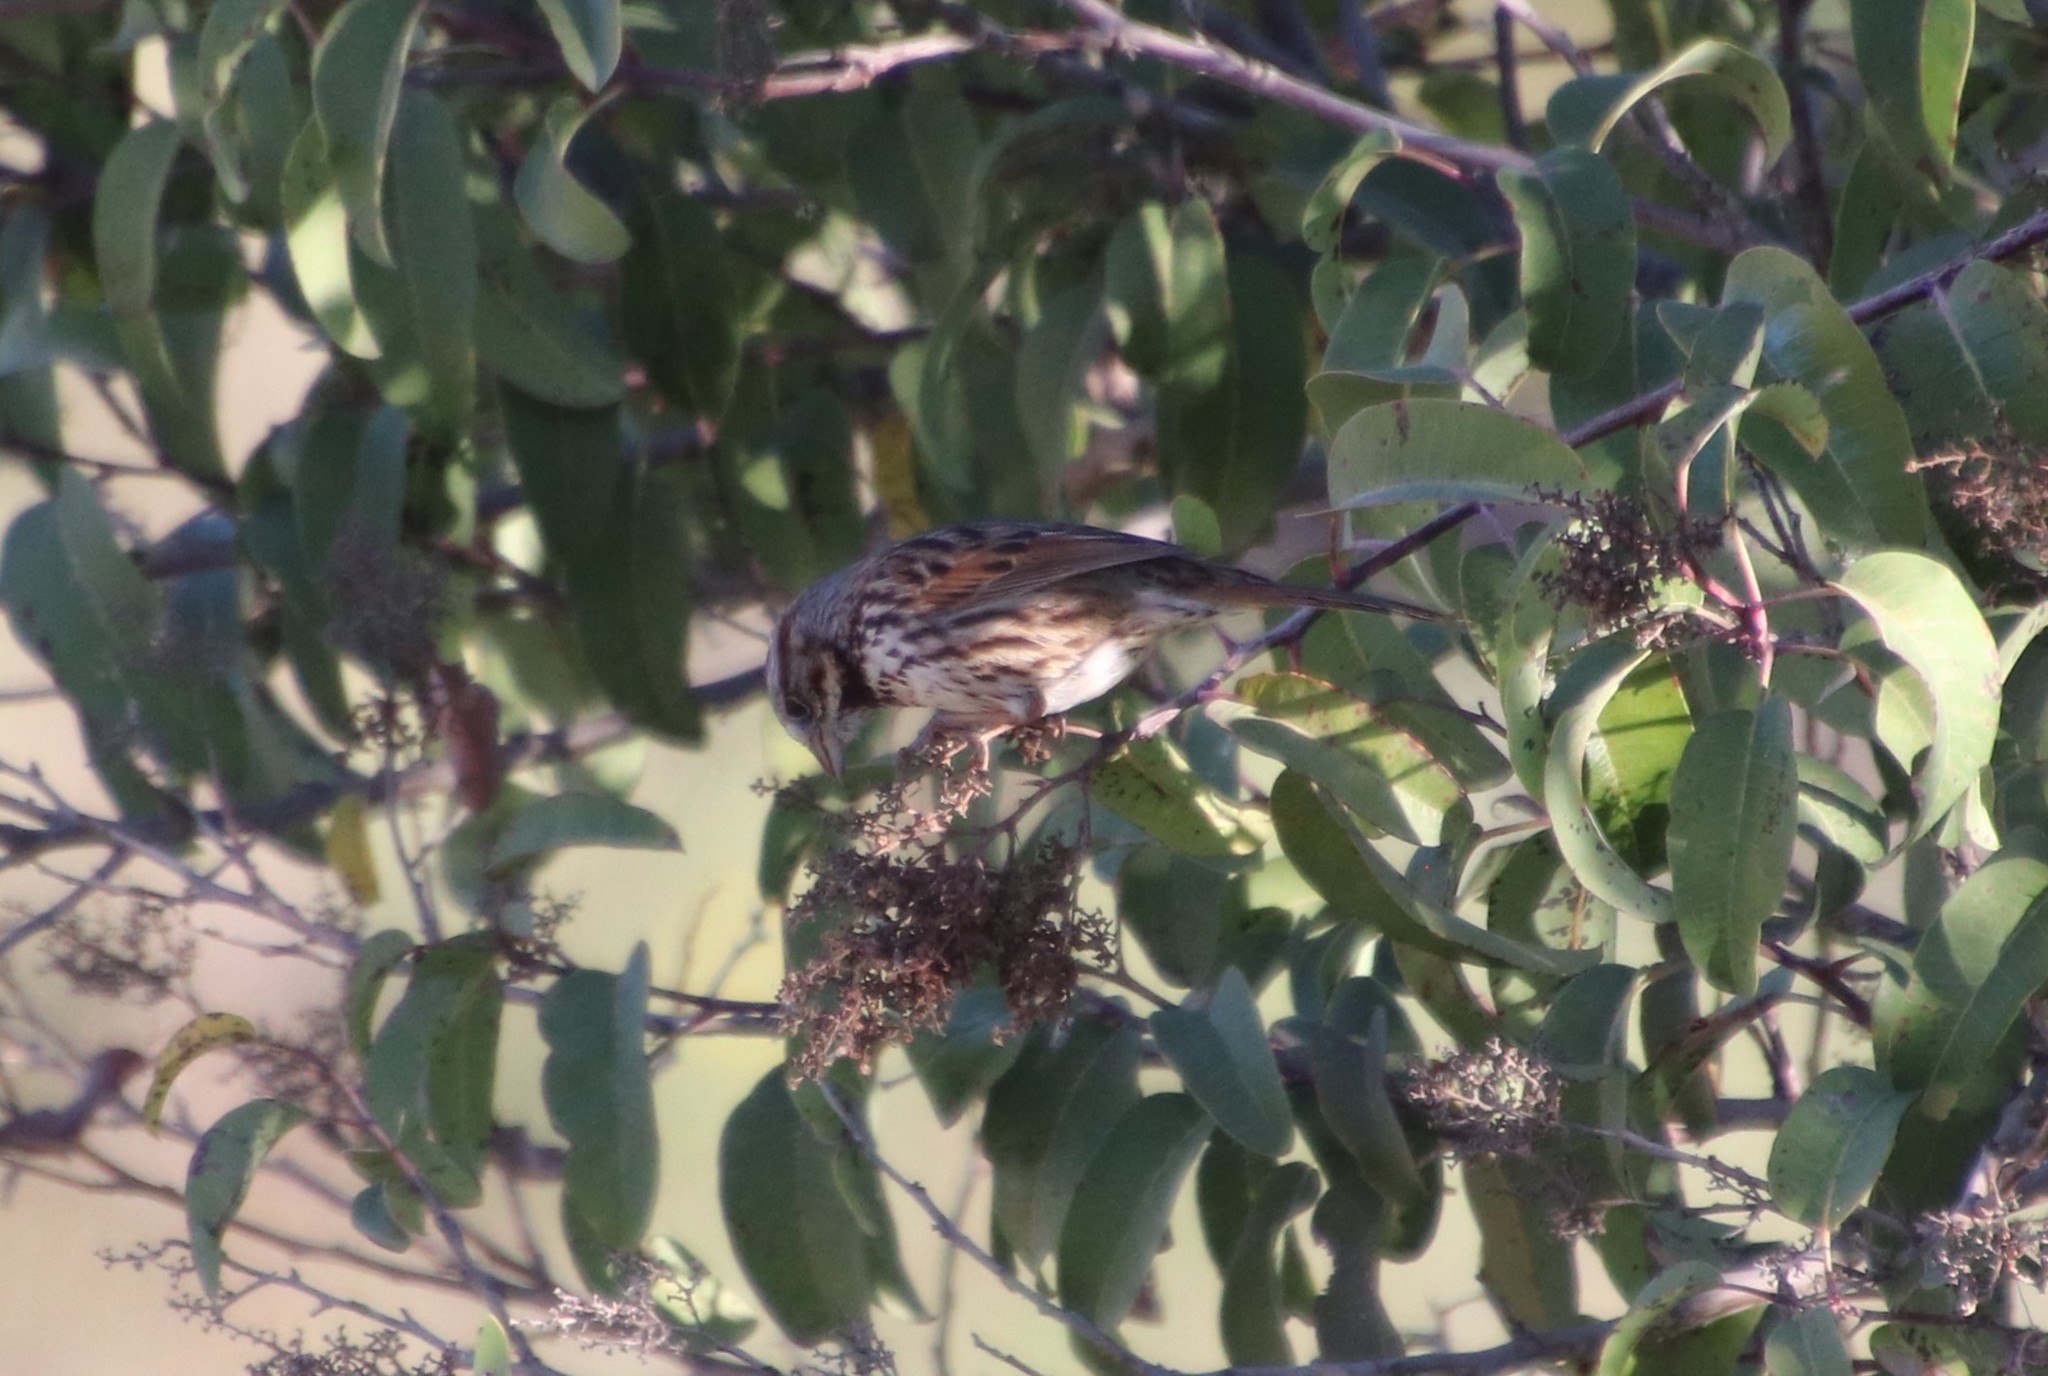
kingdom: Animalia
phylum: Chordata
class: Aves
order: Passeriformes
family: Passerellidae
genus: Melospiza
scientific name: Melospiza melodia
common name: Song sparrow
